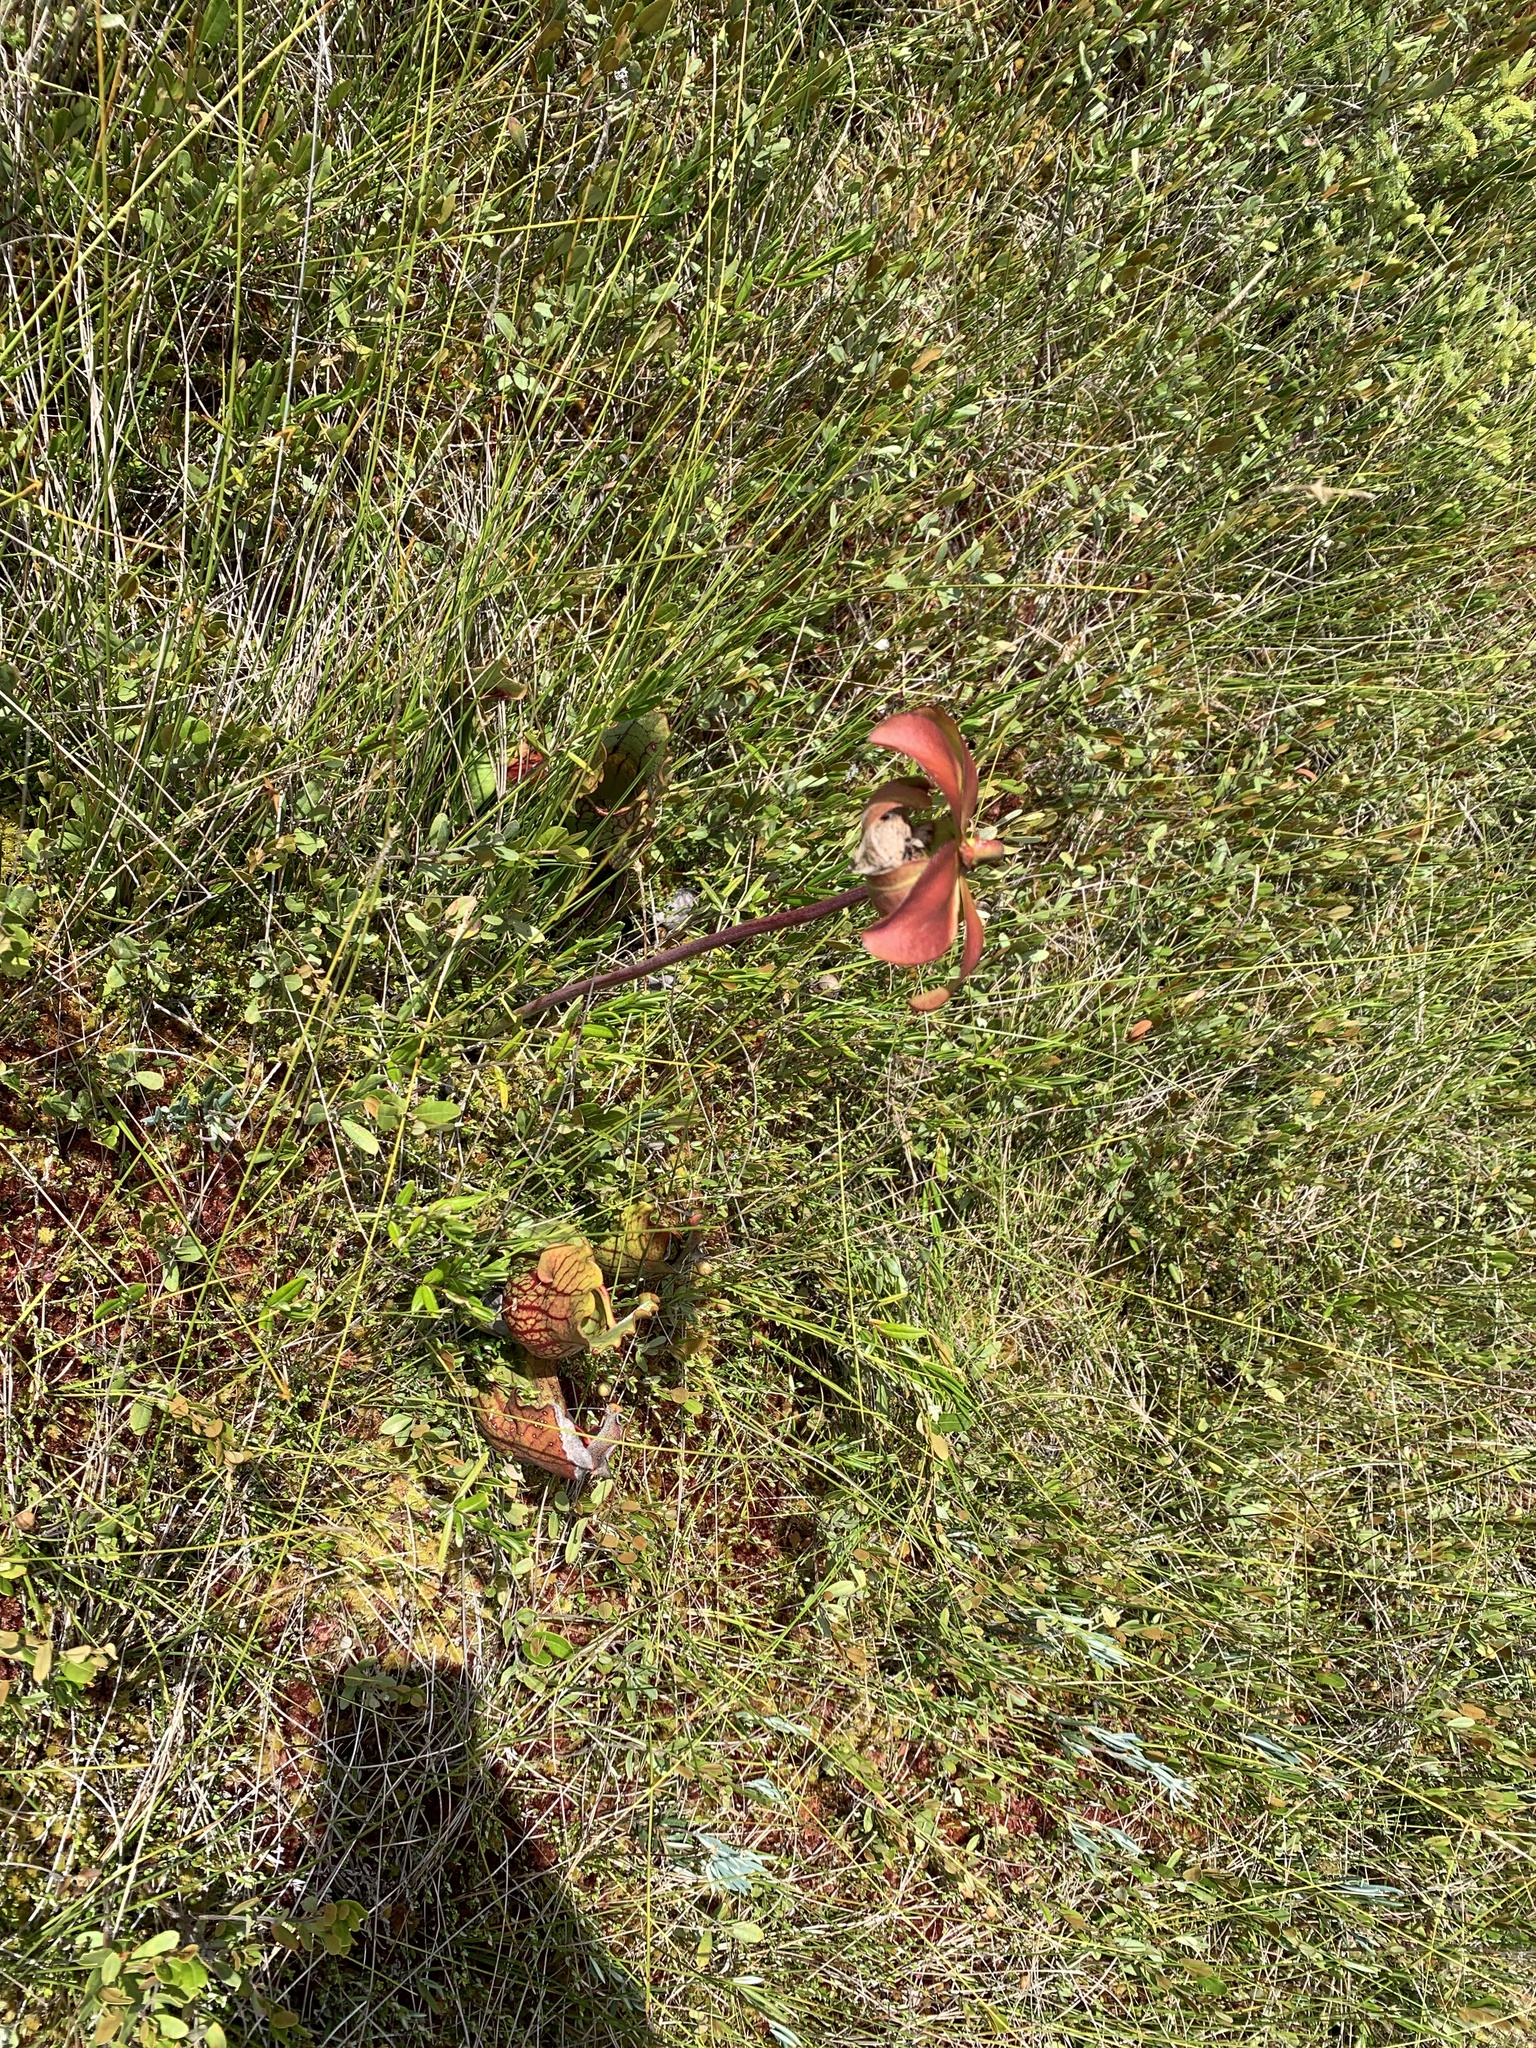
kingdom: Plantae
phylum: Tracheophyta
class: Magnoliopsida
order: Ericales
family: Sarraceniaceae
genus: Sarracenia
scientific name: Sarracenia purpurea
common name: Pitcherplant
